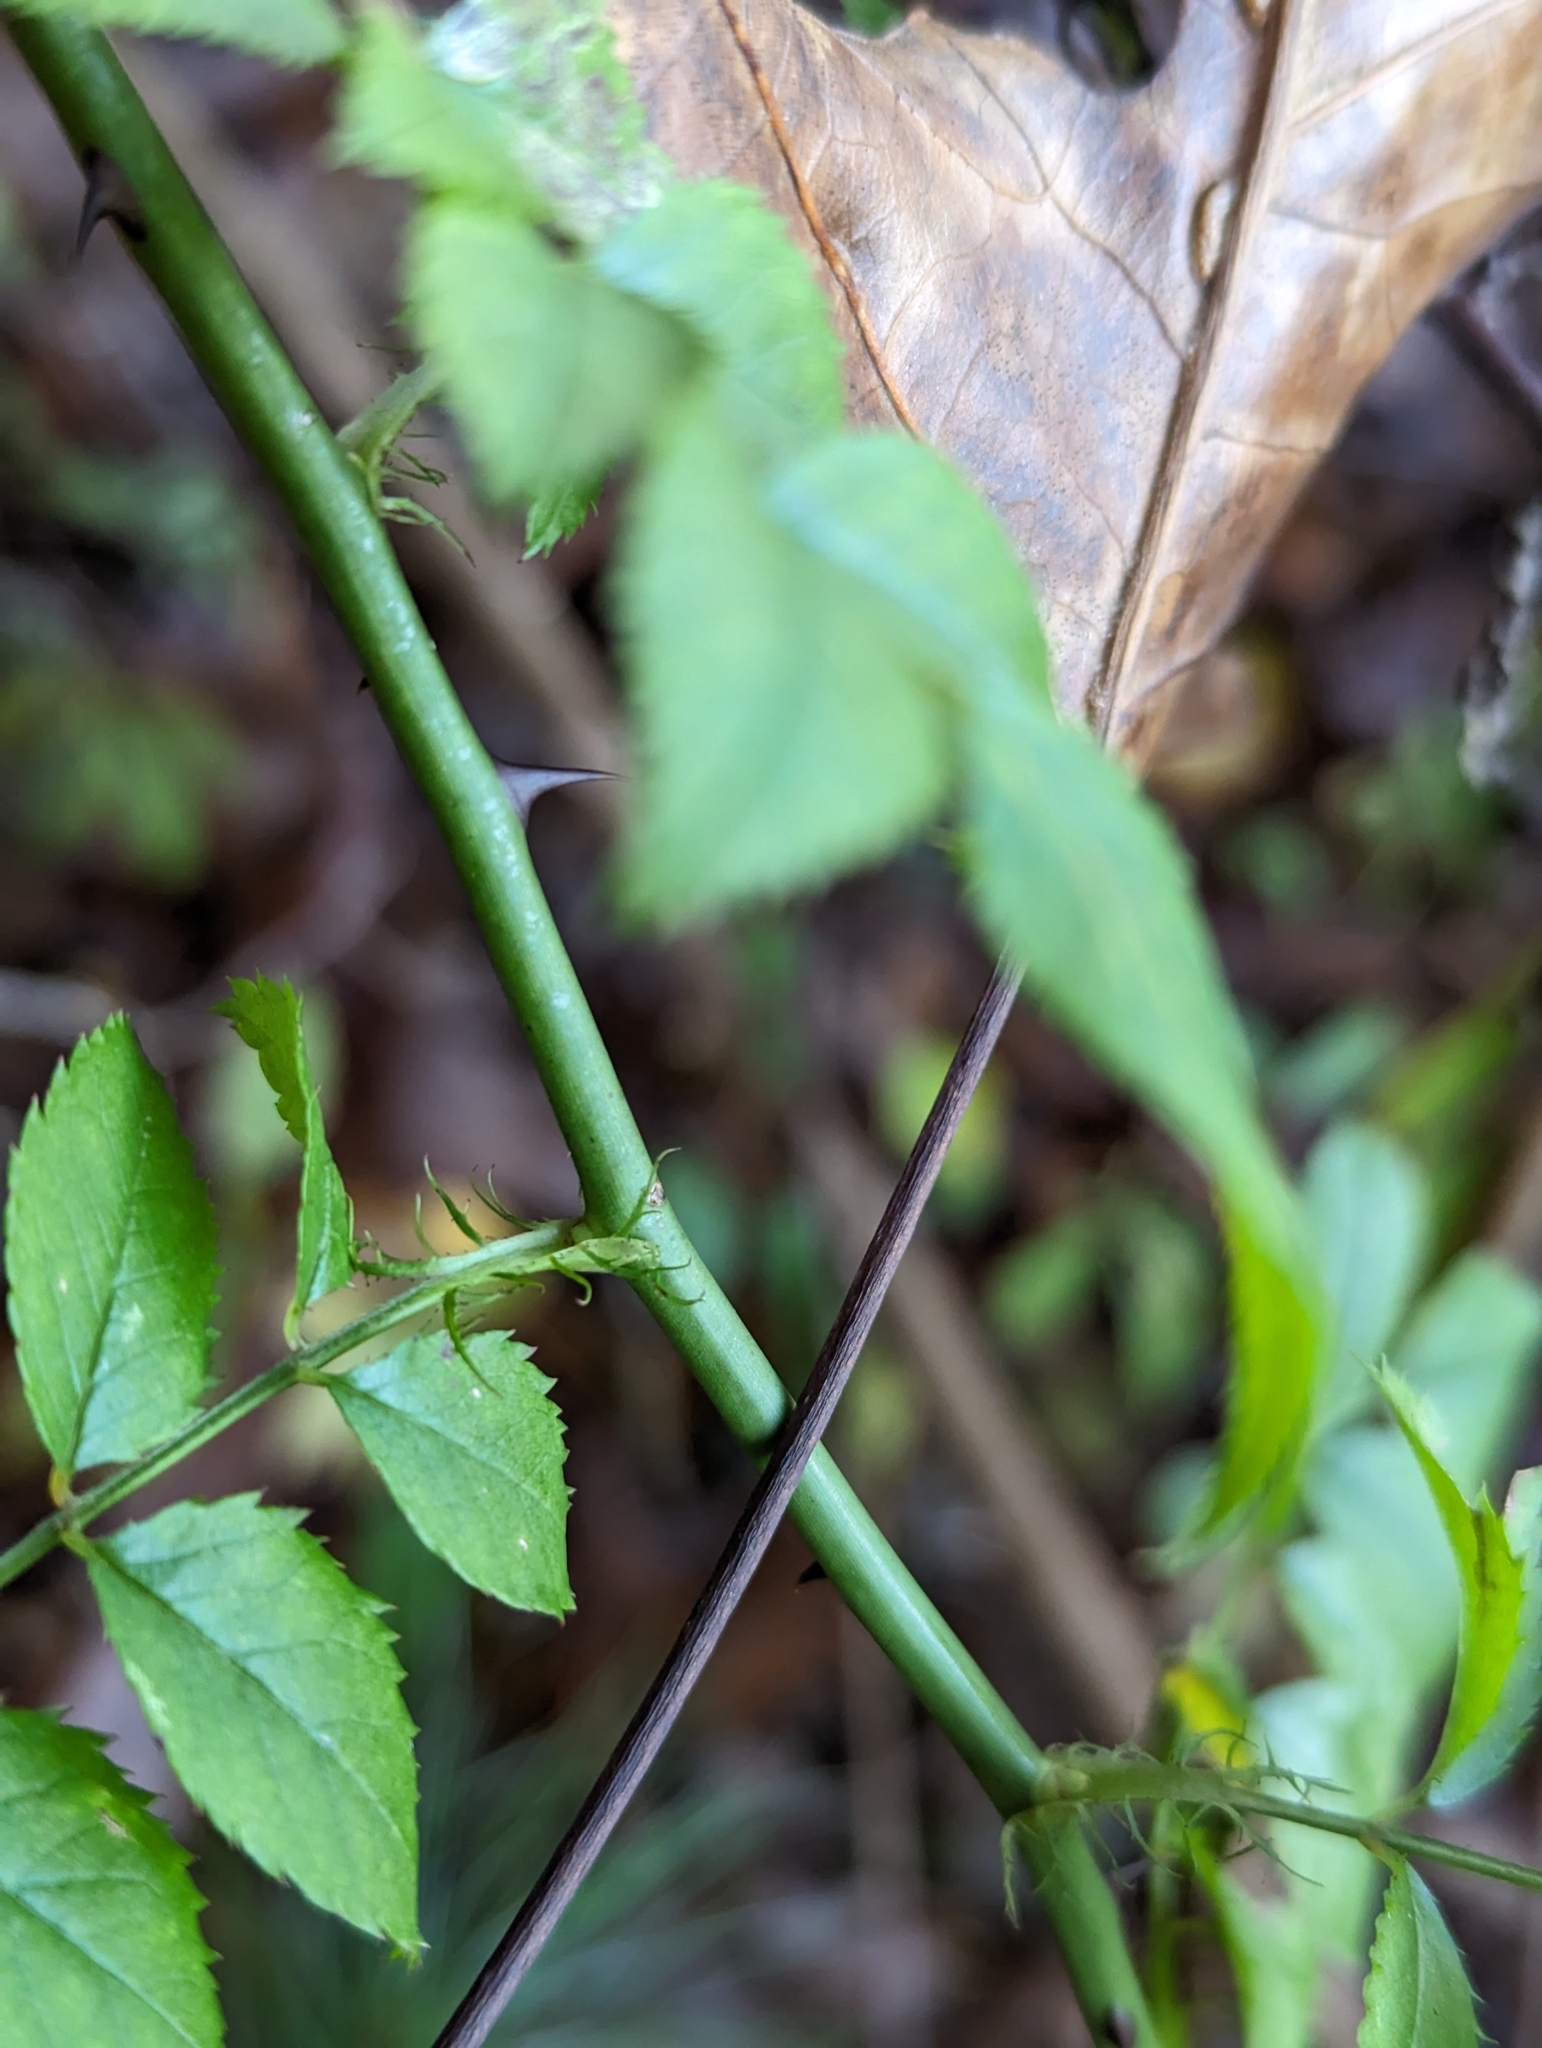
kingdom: Plantae
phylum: Tracheophyta
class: Magnoliopsida
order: Rosales
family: Rosaceae
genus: Rosa
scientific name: Rosa multiflora
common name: Multiflora rose
